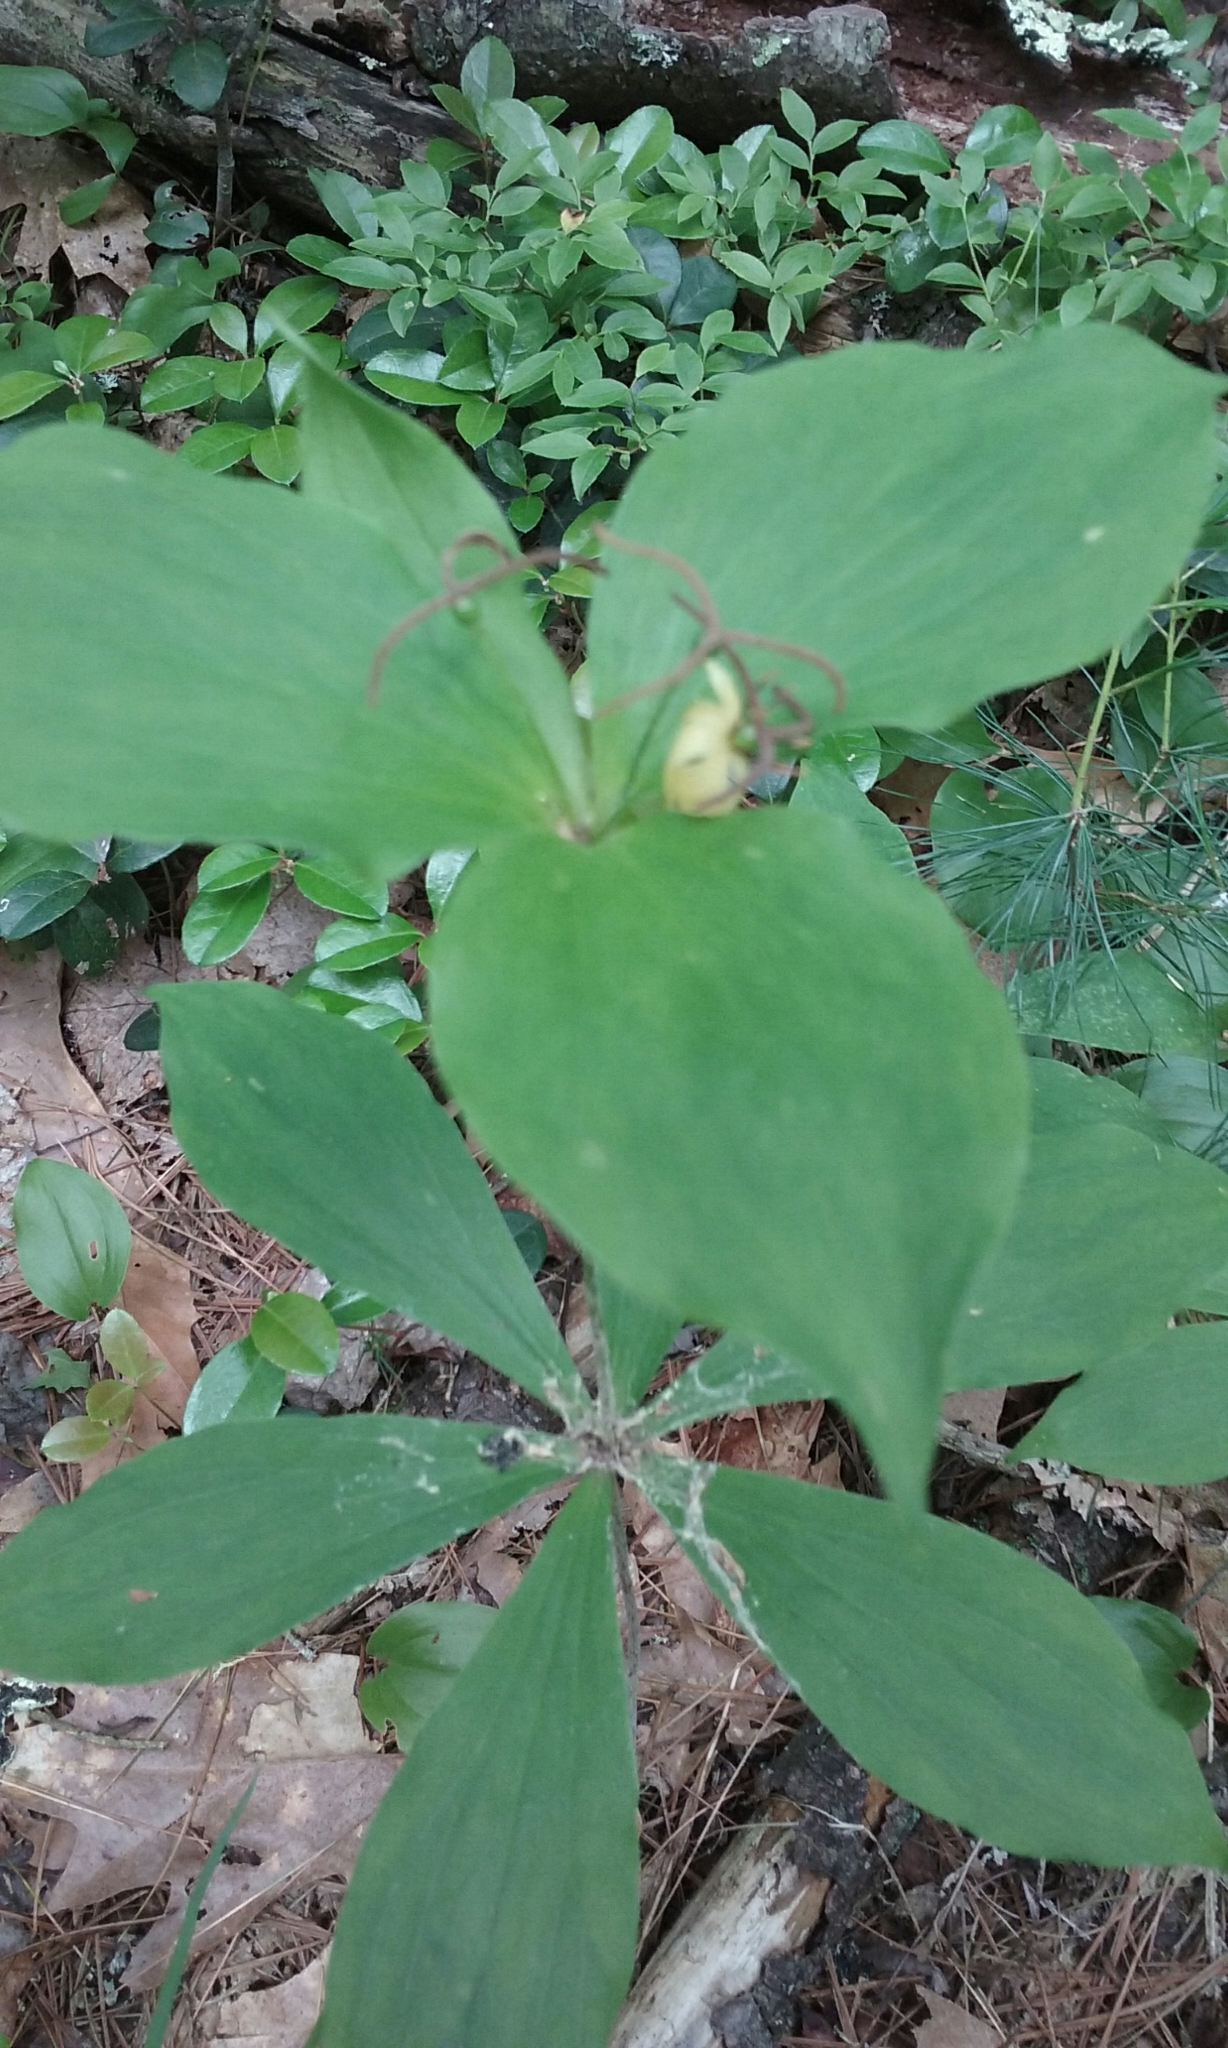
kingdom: Plantae
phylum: Tracheophyta
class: Liliopsida
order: Liliales
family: Liliaceae
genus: Medeola
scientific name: Medeola virginiana
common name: Indian cucumber-root
